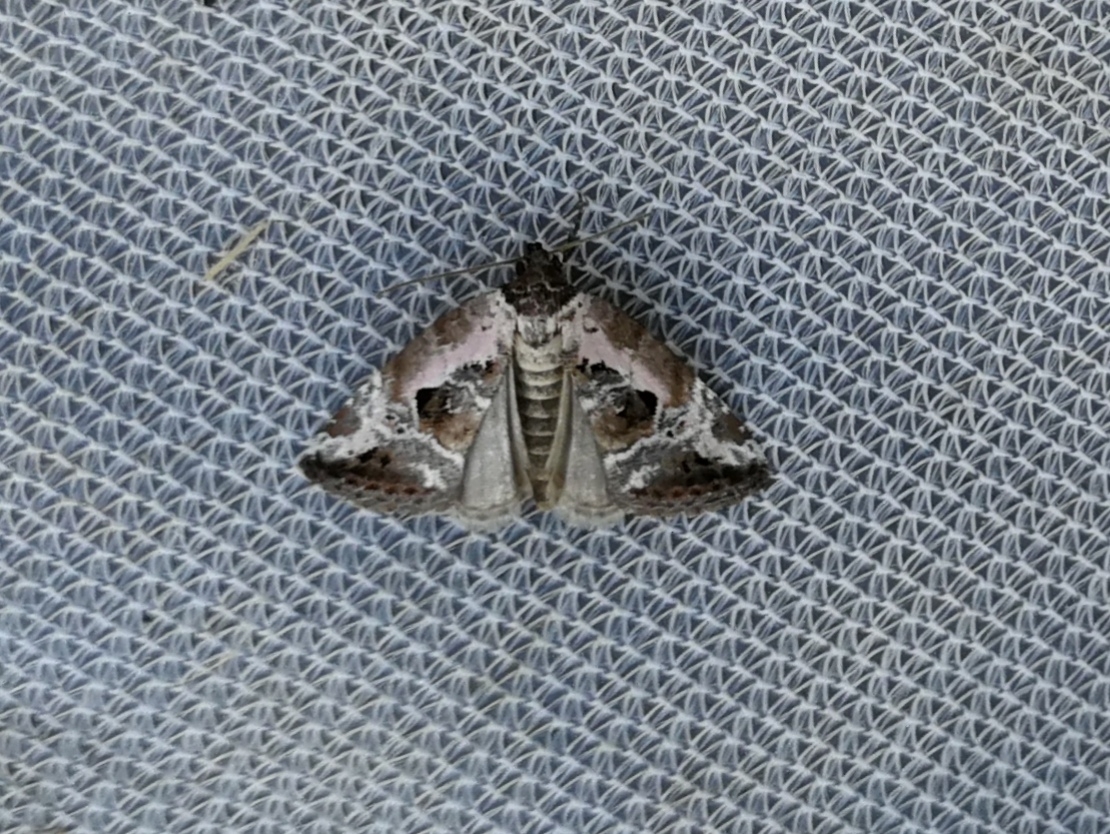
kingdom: Animalia
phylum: Arthropoda
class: Insecta
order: Lepidoptera
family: Noctuidae
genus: Elaphria
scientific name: Elaphria venustula
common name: Rosy marbled
